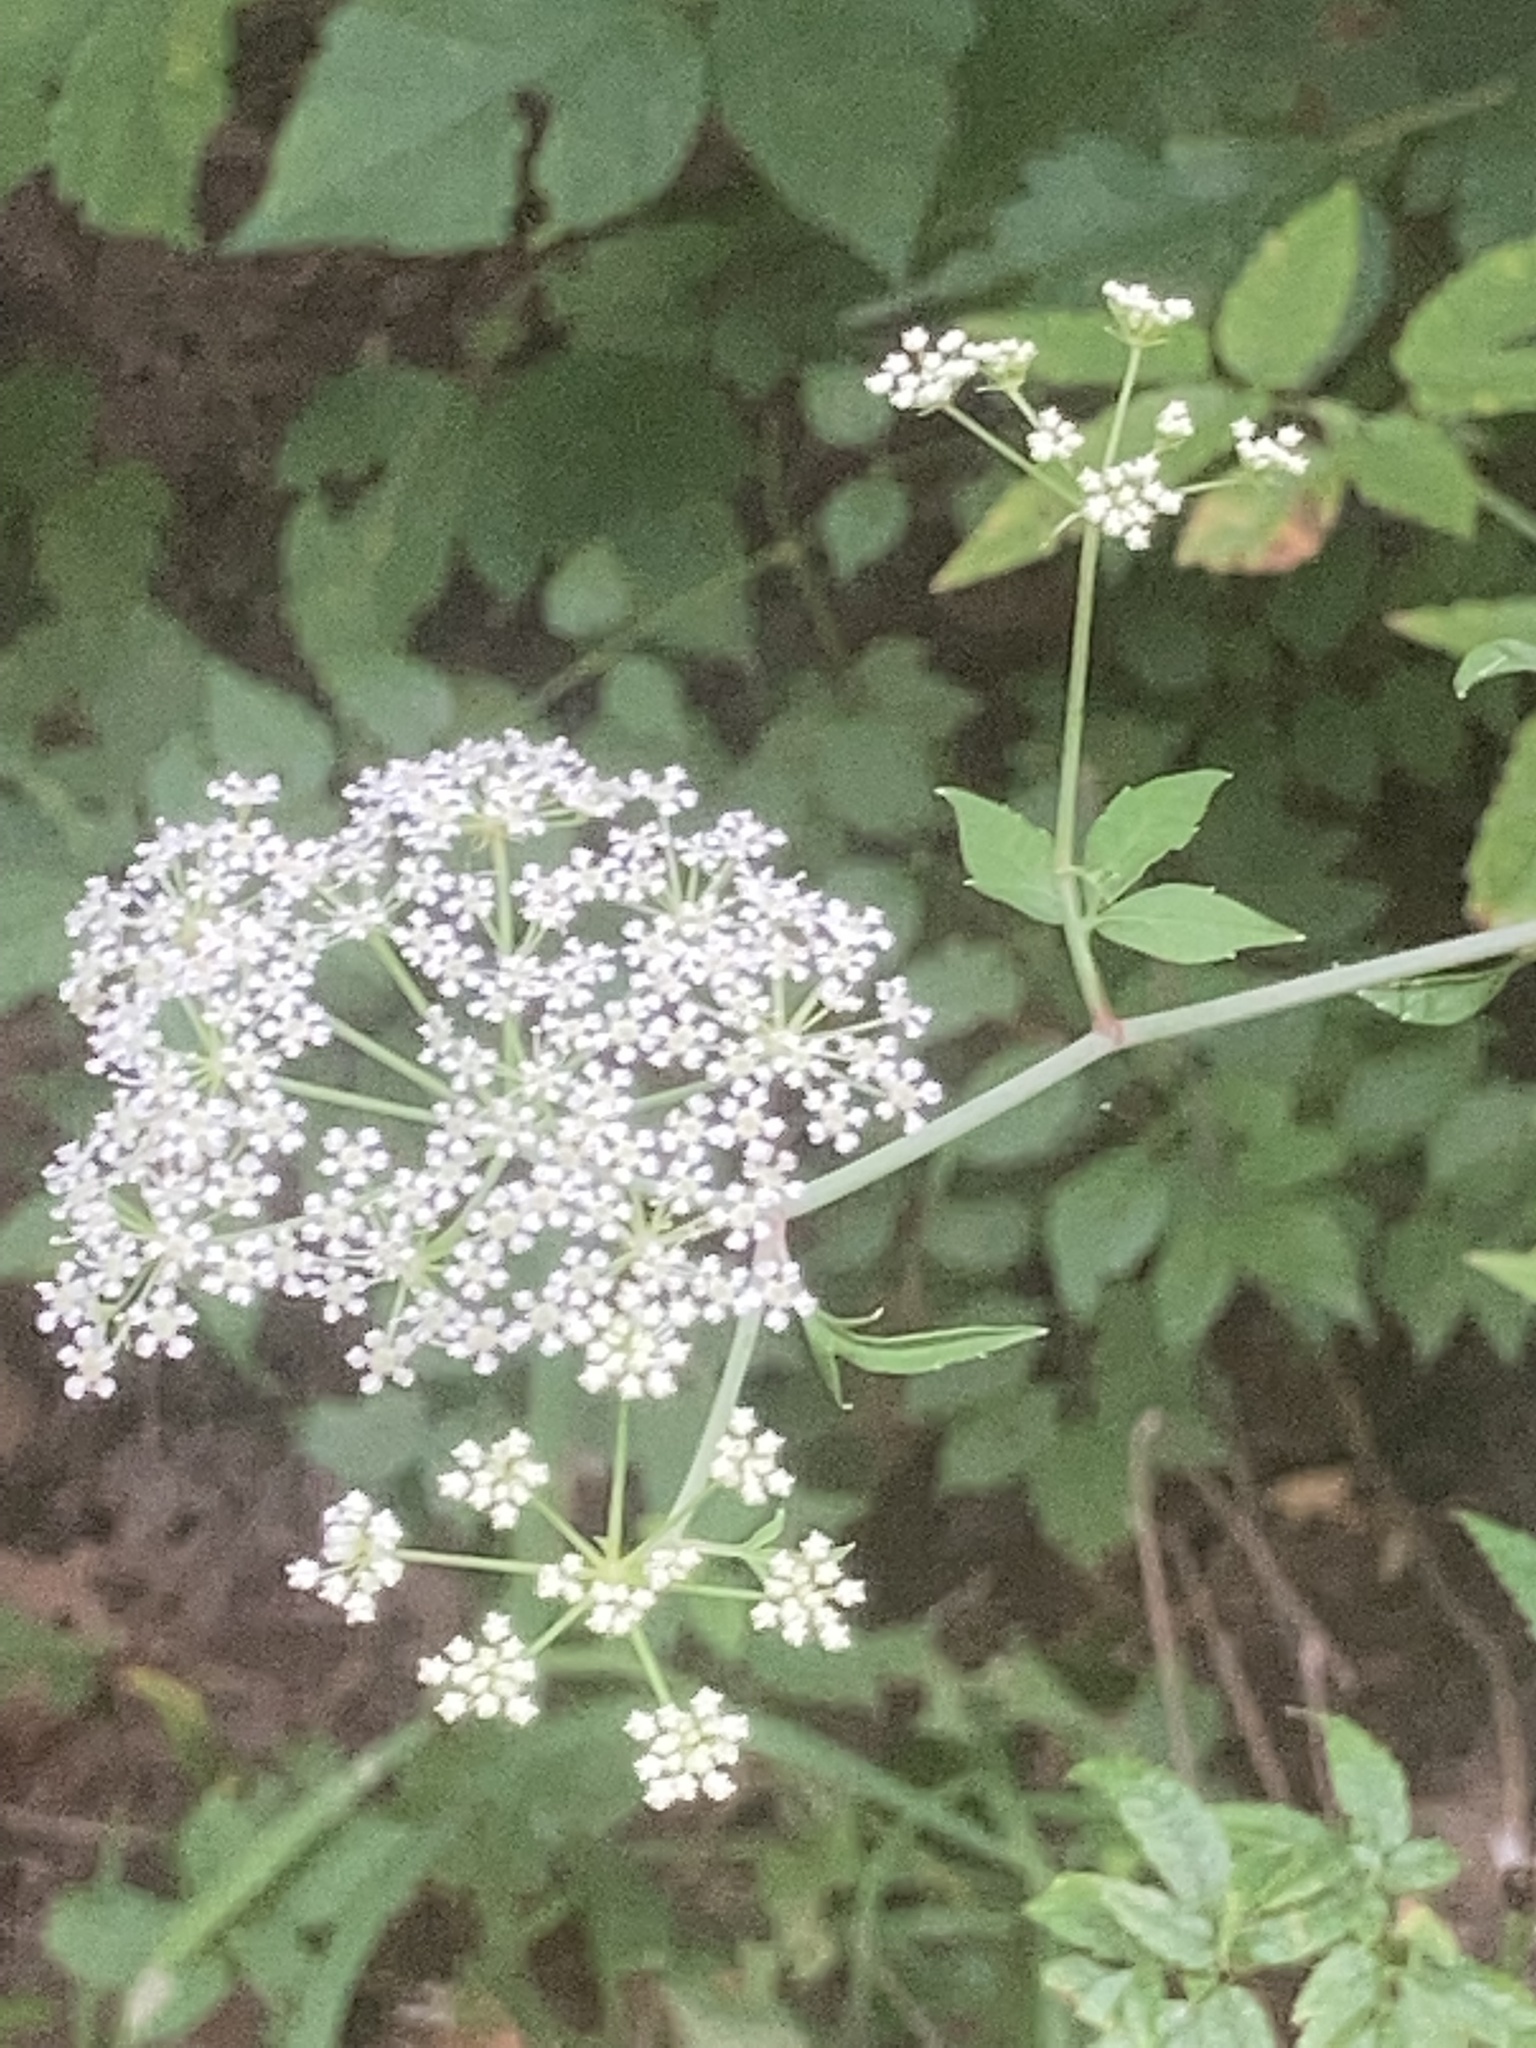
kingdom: Plantae
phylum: Tracheophyta
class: Magnoliopsida
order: Apiales
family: Apiaceae
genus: Cicuta
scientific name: Cicuta maculata
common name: Spotted cowbane
